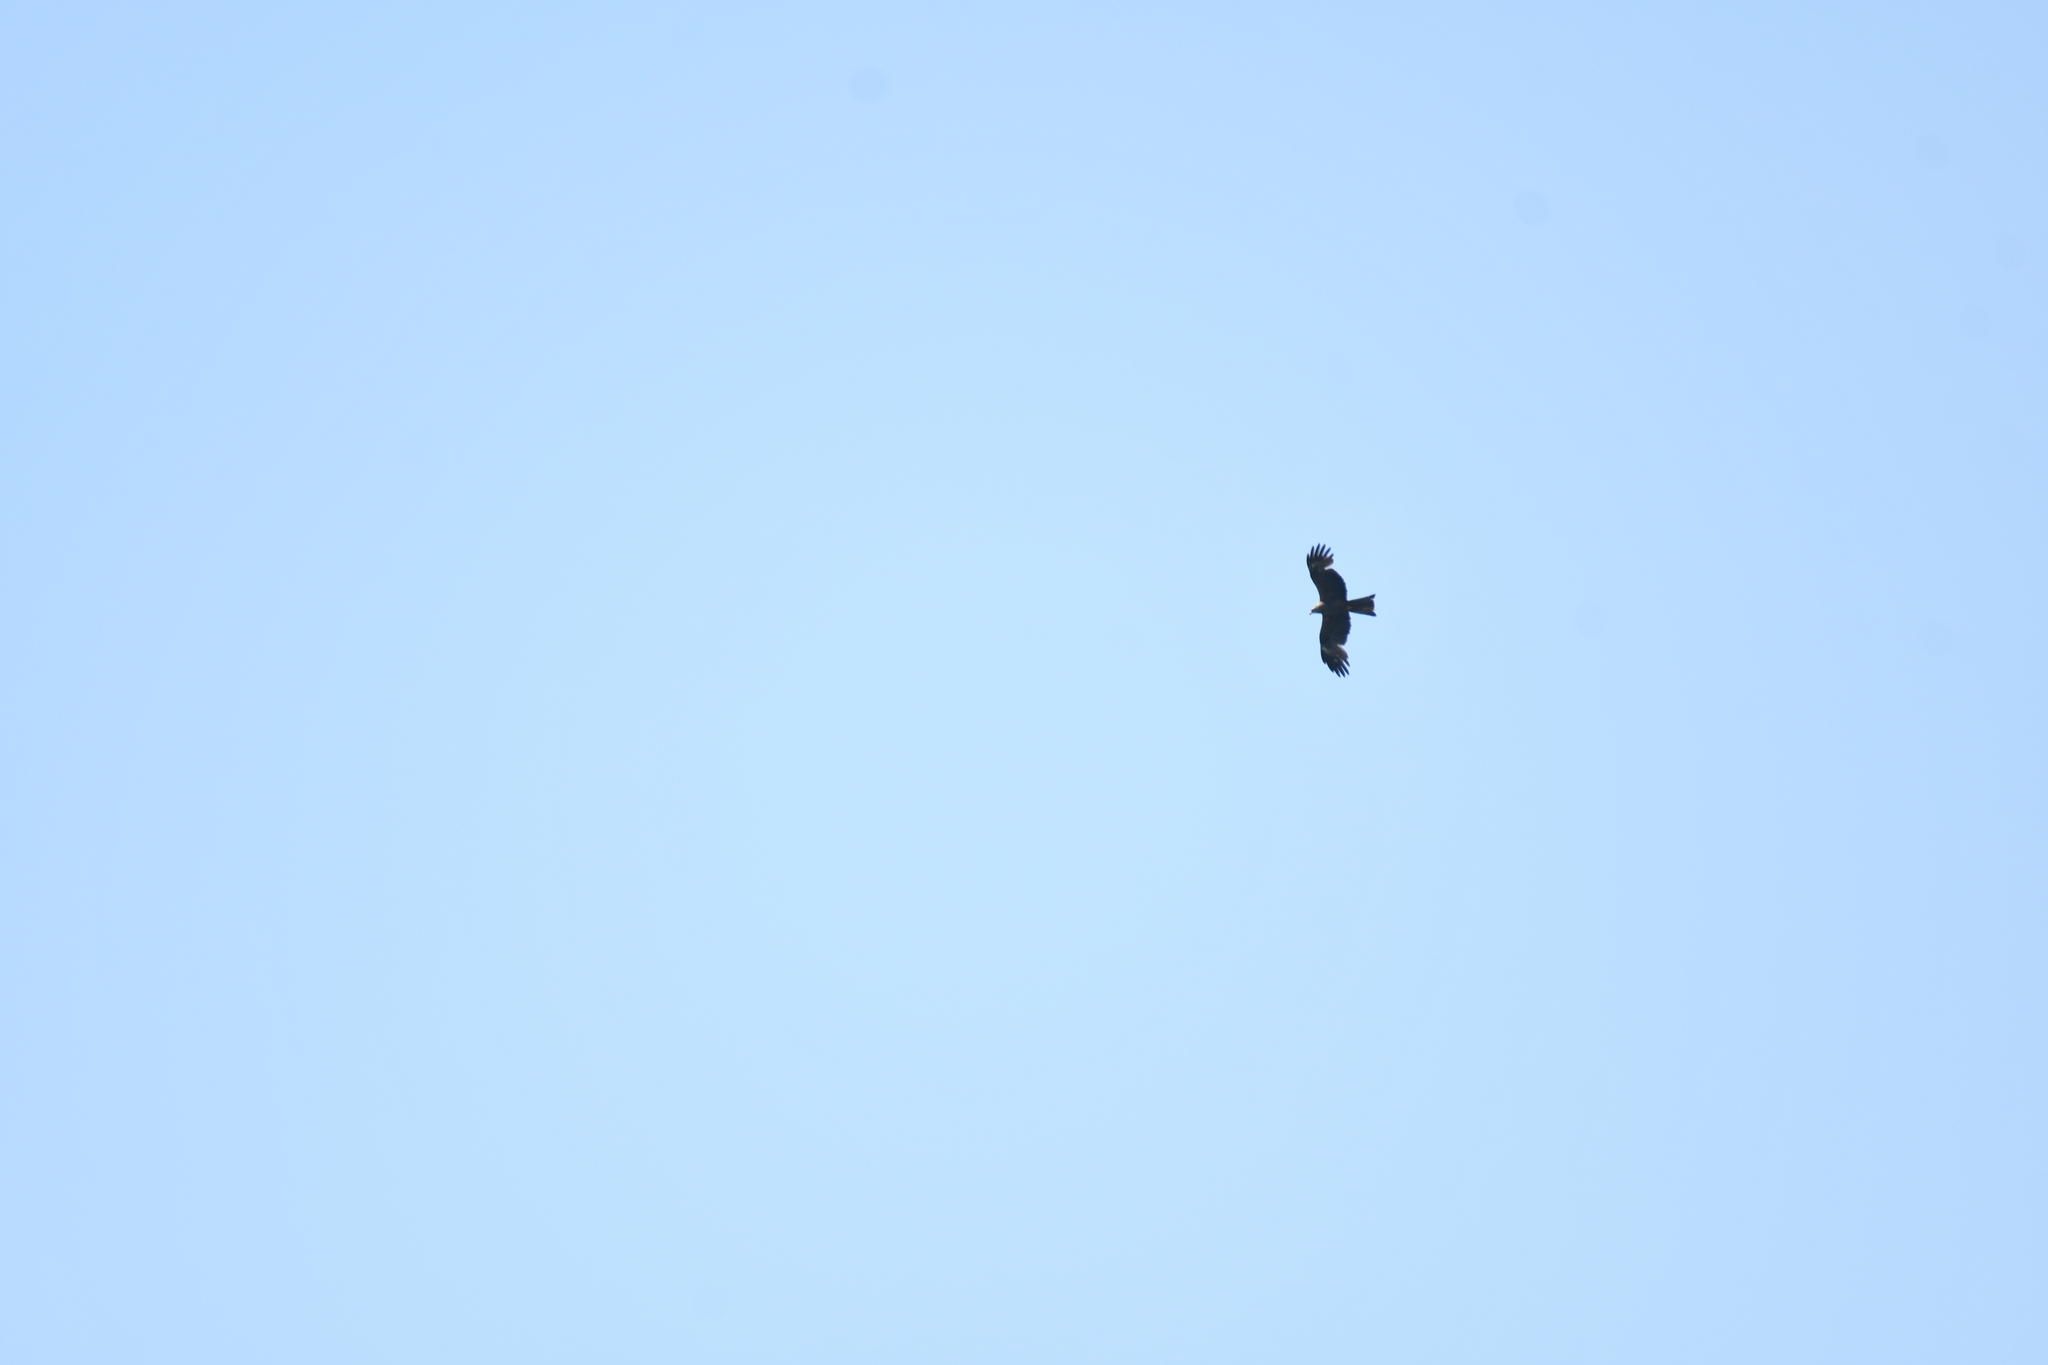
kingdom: Animalia
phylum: Chordata
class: Aves
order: Accipitriformes
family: Accipitridae
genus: Milvus
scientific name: Milvus migrans
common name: Black kite
